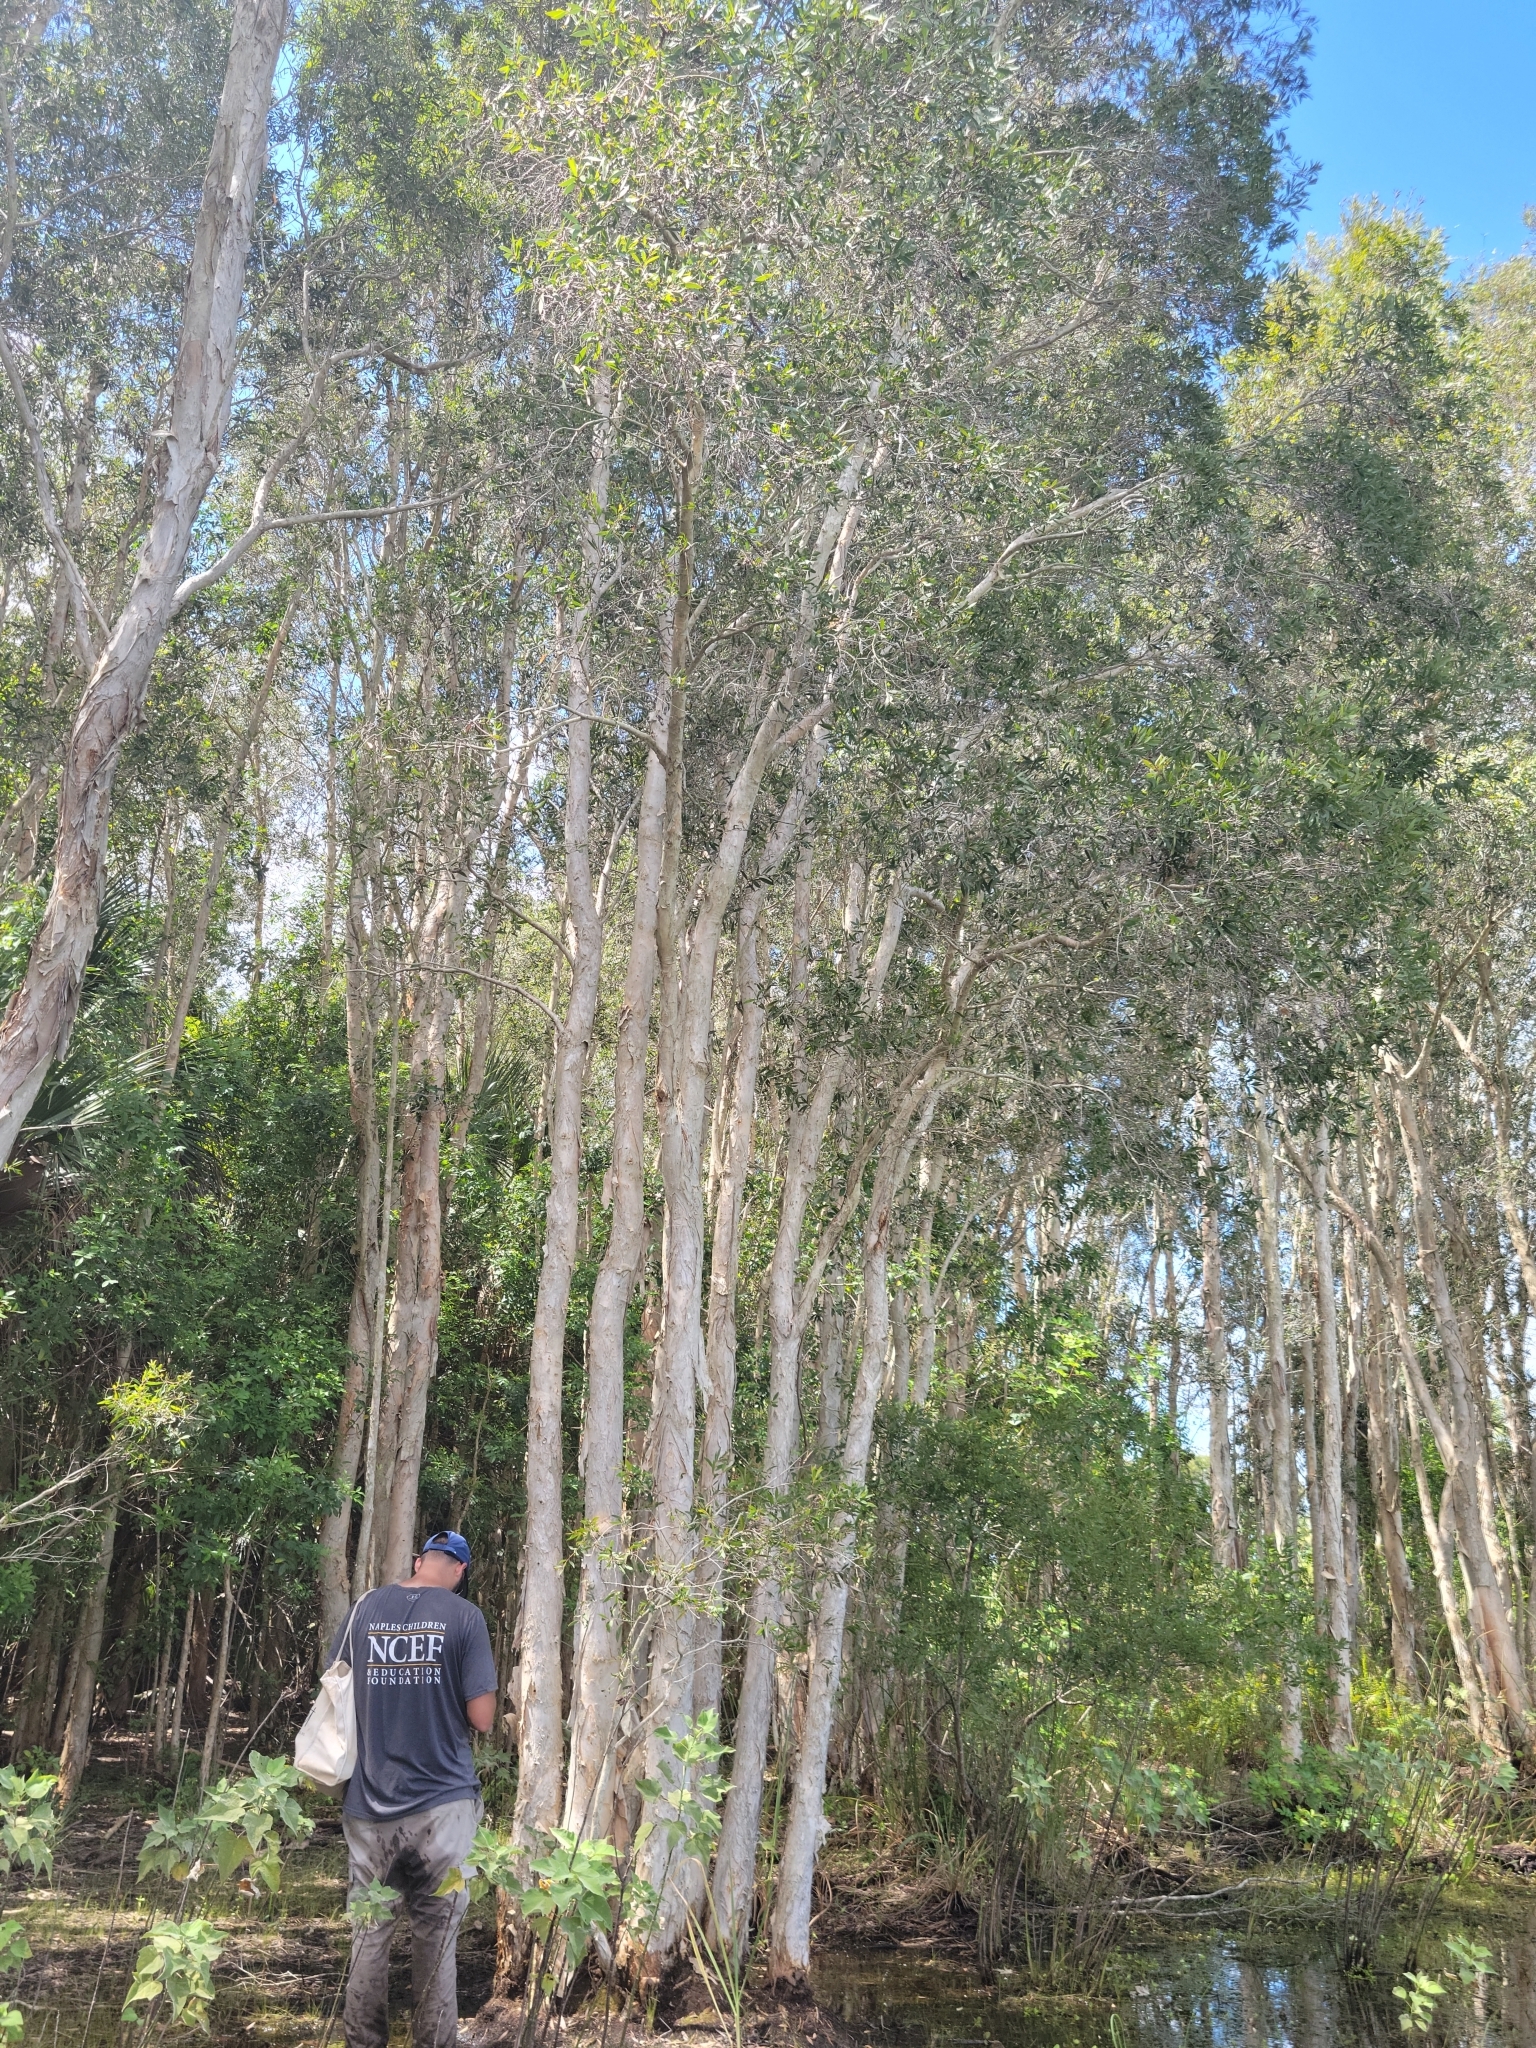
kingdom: Plantae
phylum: Tracheophyta
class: Magnoliopsida
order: Myrtales
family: Myrtaceae
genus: Melaleuca
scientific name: Melaleuca quinquenervia
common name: Punktree
